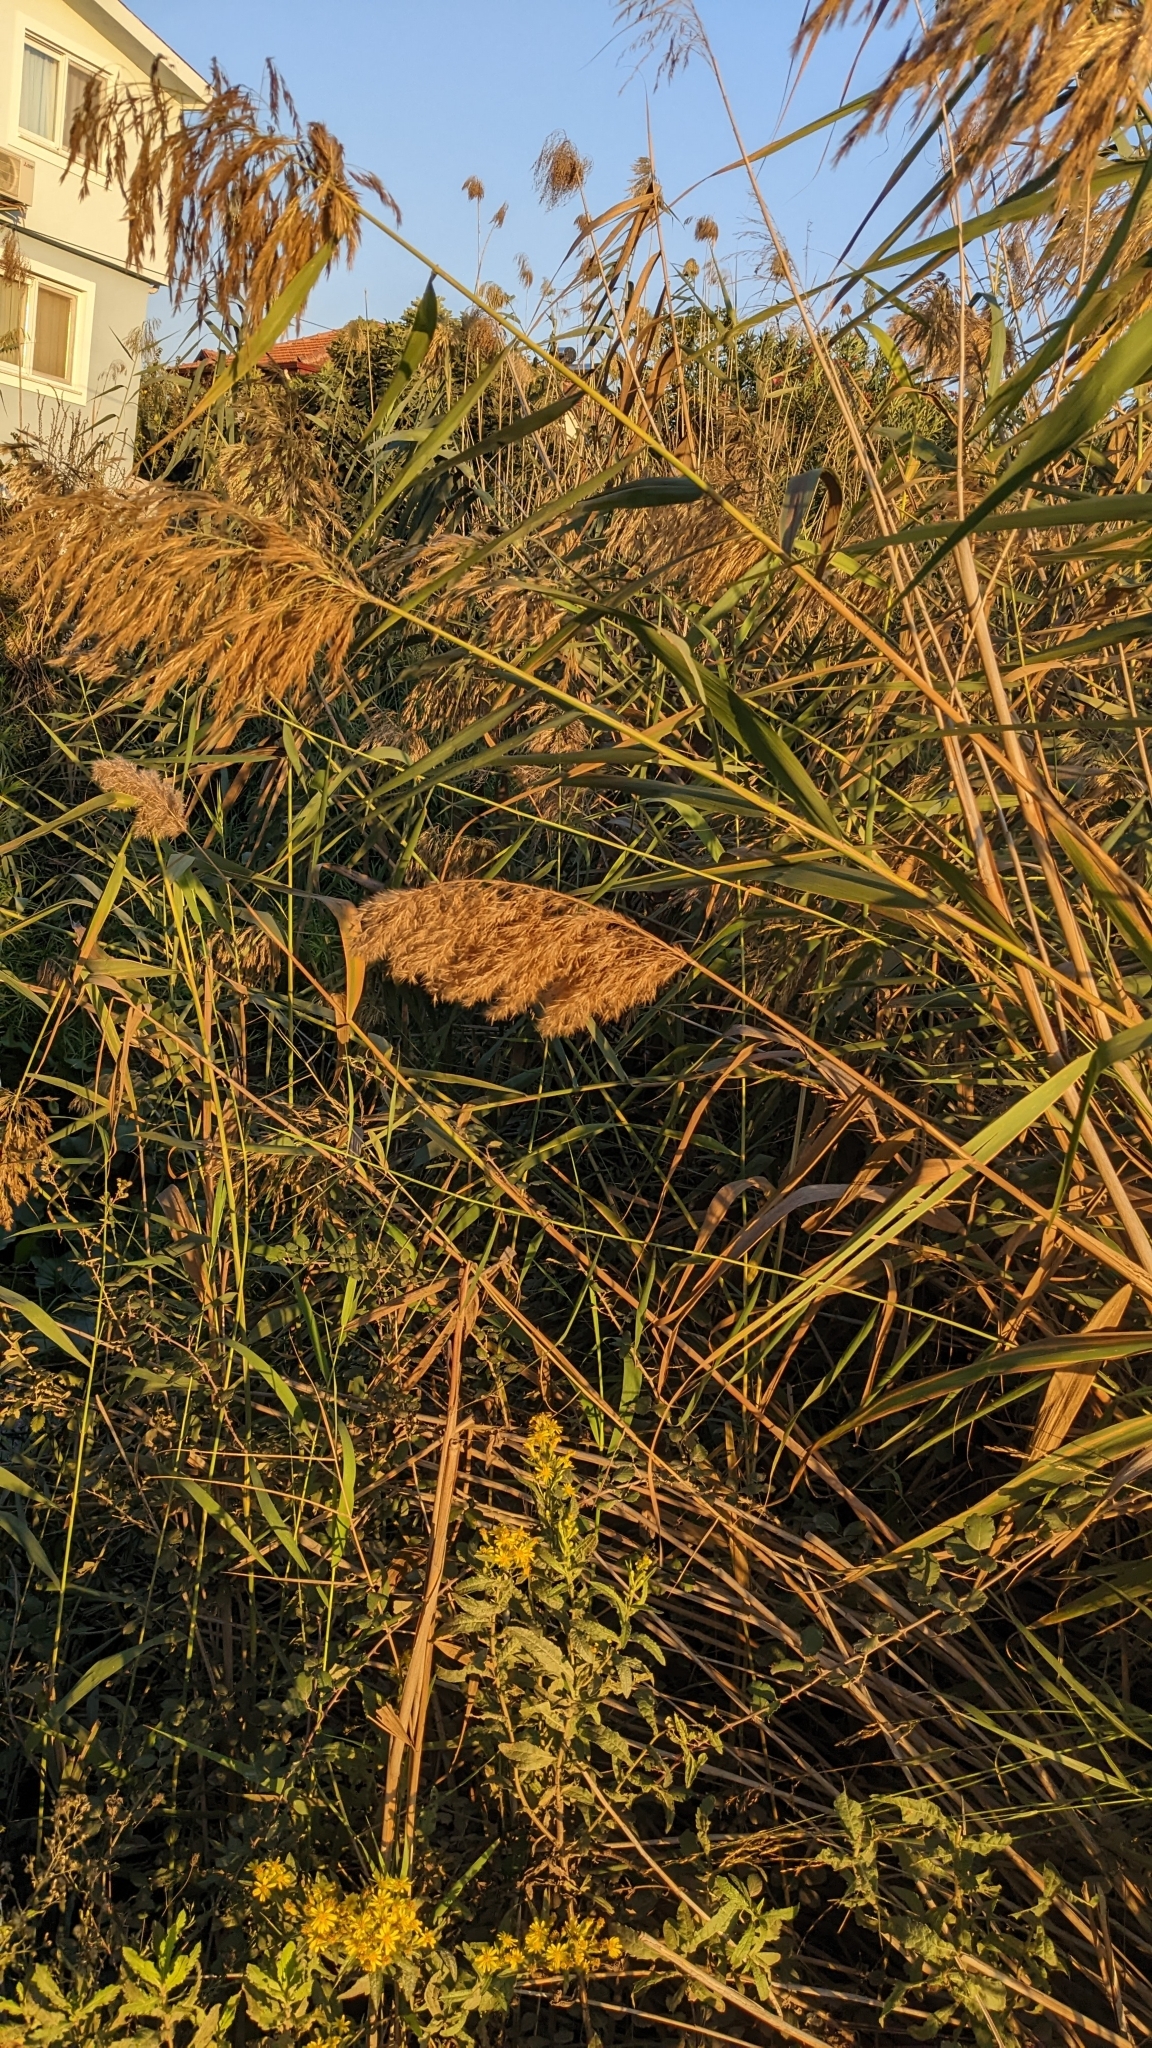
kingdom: Plantae
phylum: Tracheophyta
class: Liliopsida
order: Poales
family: Poaceae
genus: Phragmites
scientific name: Phragmites australis
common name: Common reed
